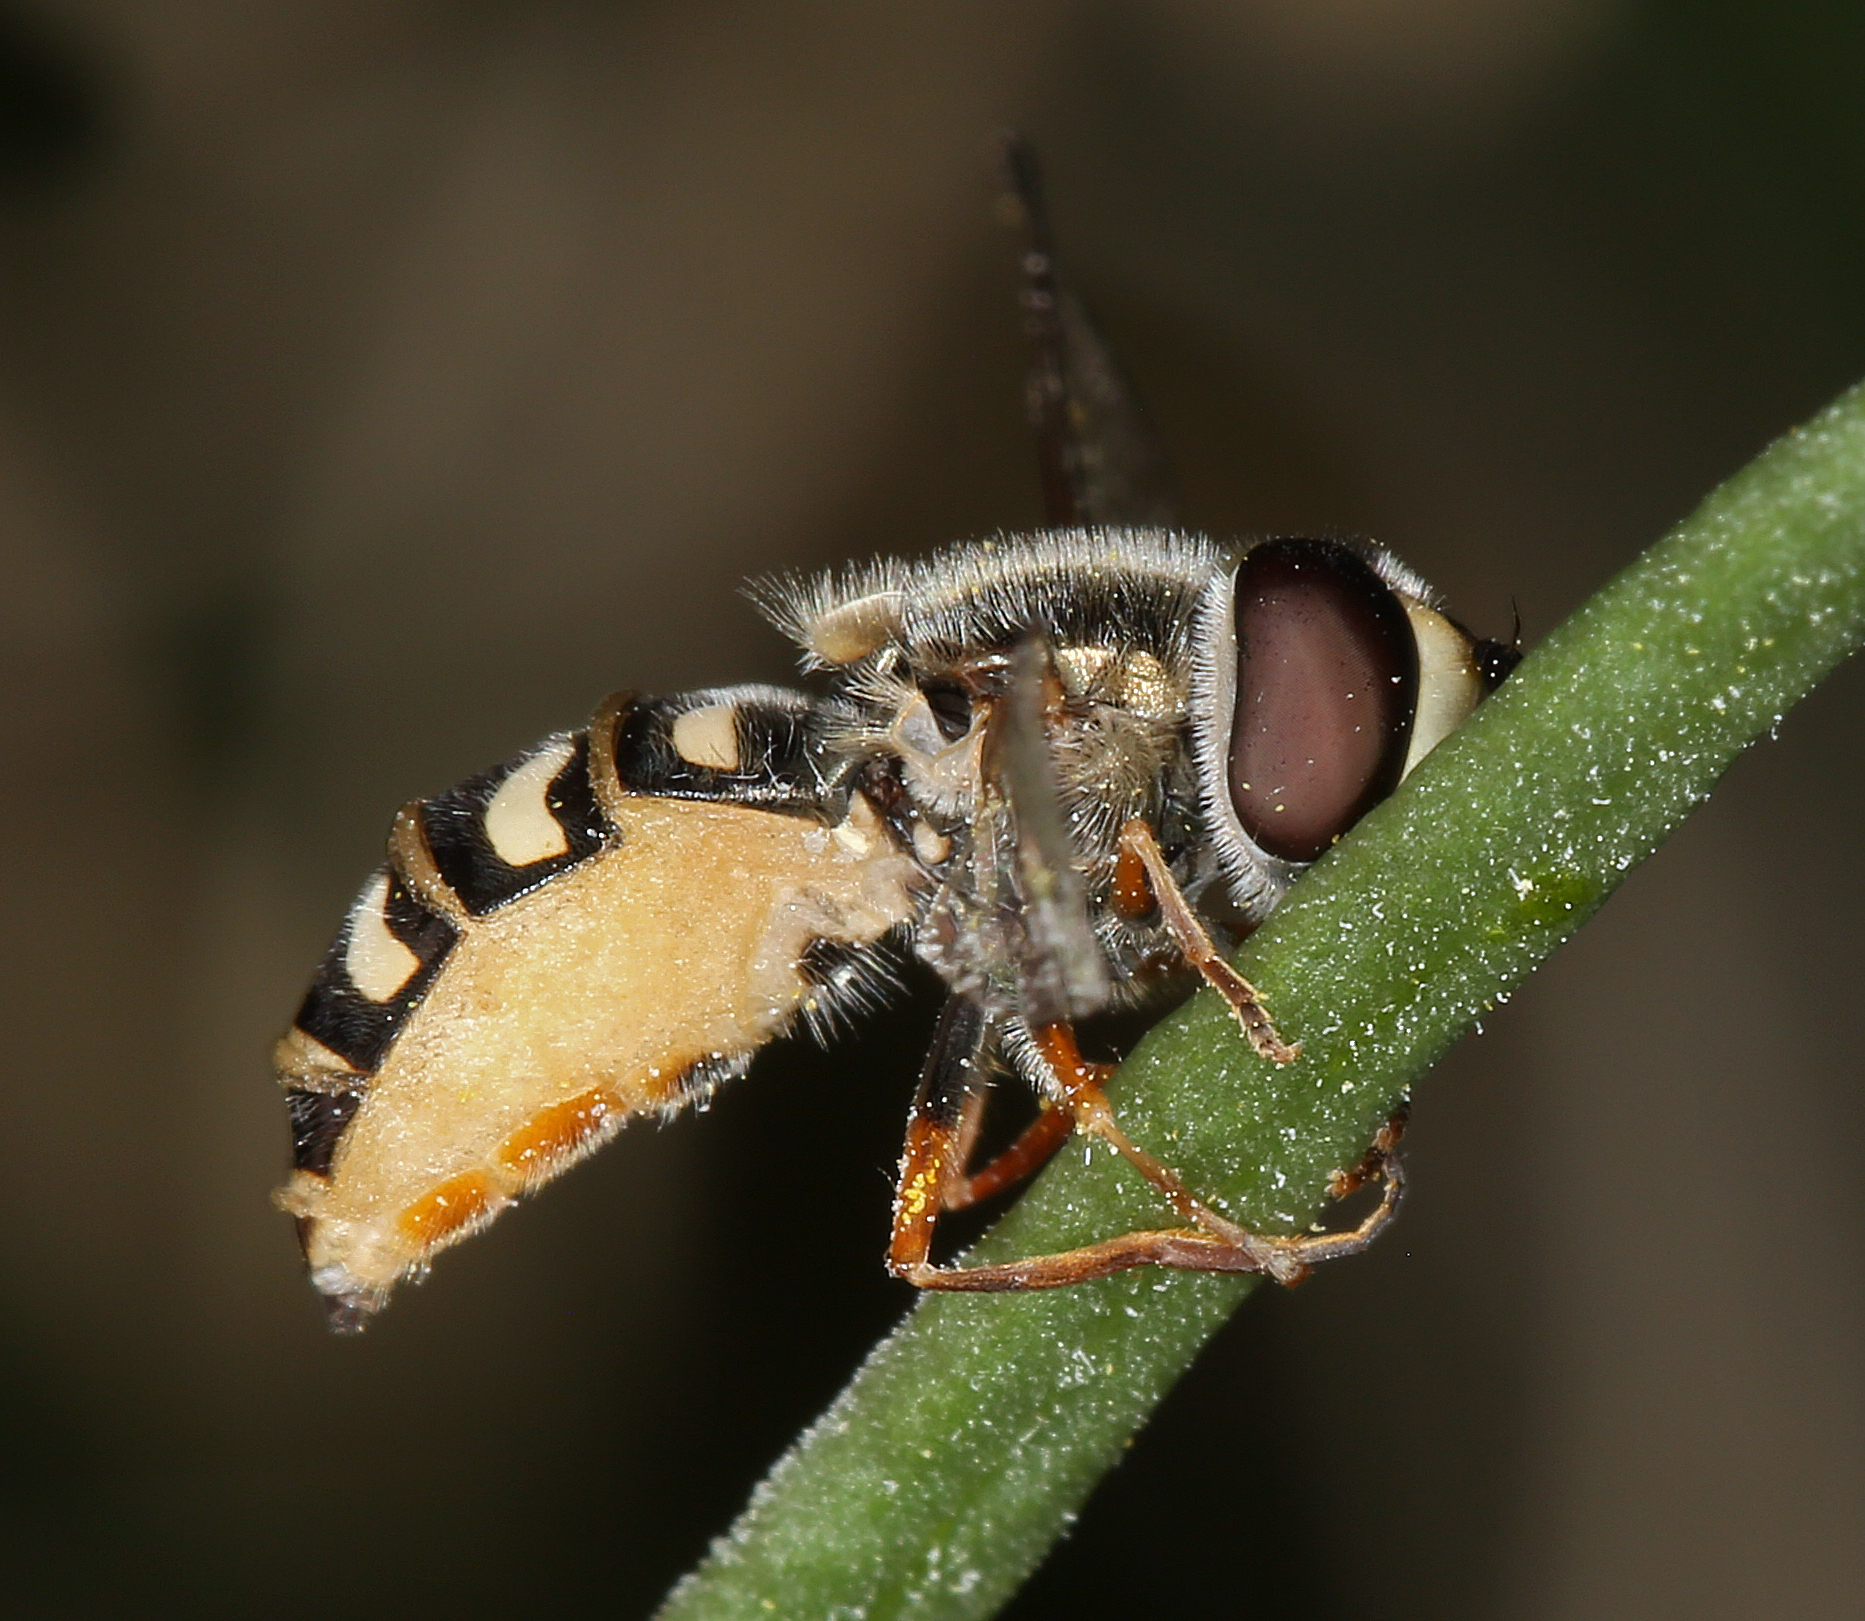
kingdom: Animalia
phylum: Arthropoda
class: Insecta
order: Diptera
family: Syrphidae
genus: Eupeodes
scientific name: Eupeodes volucris
